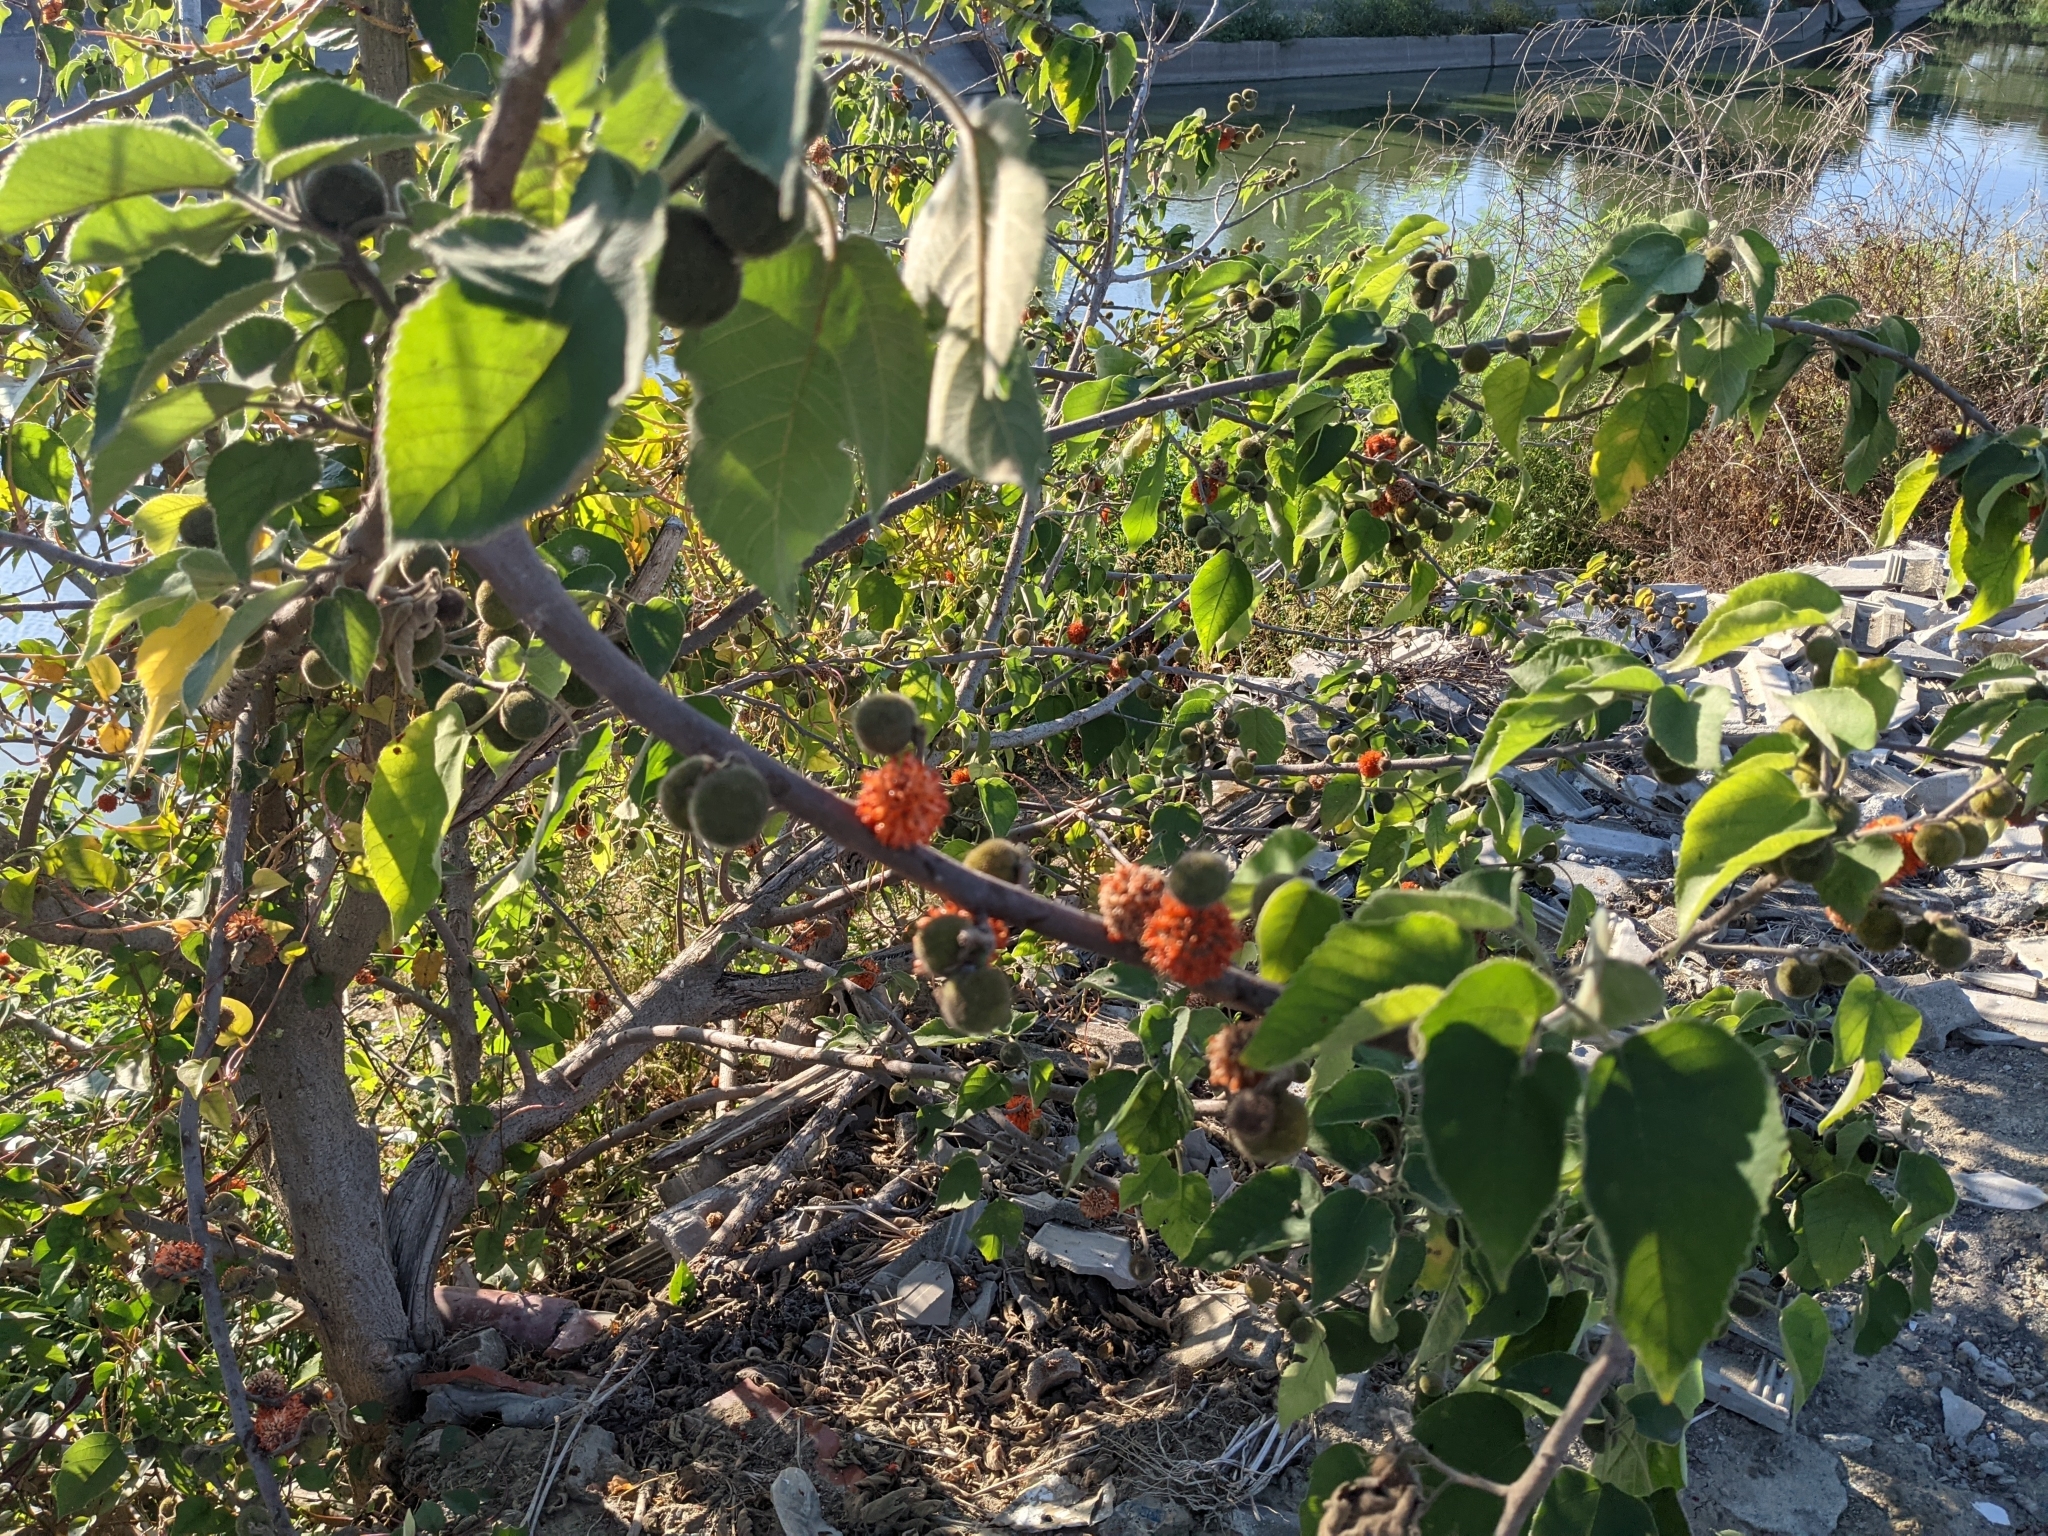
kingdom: Plantae
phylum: Tracheophyta
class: Magnoliopsida
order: Rosales
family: Moraceae
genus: Broussonetia
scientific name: Broussonetia papyrifera
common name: Paper mulberry
